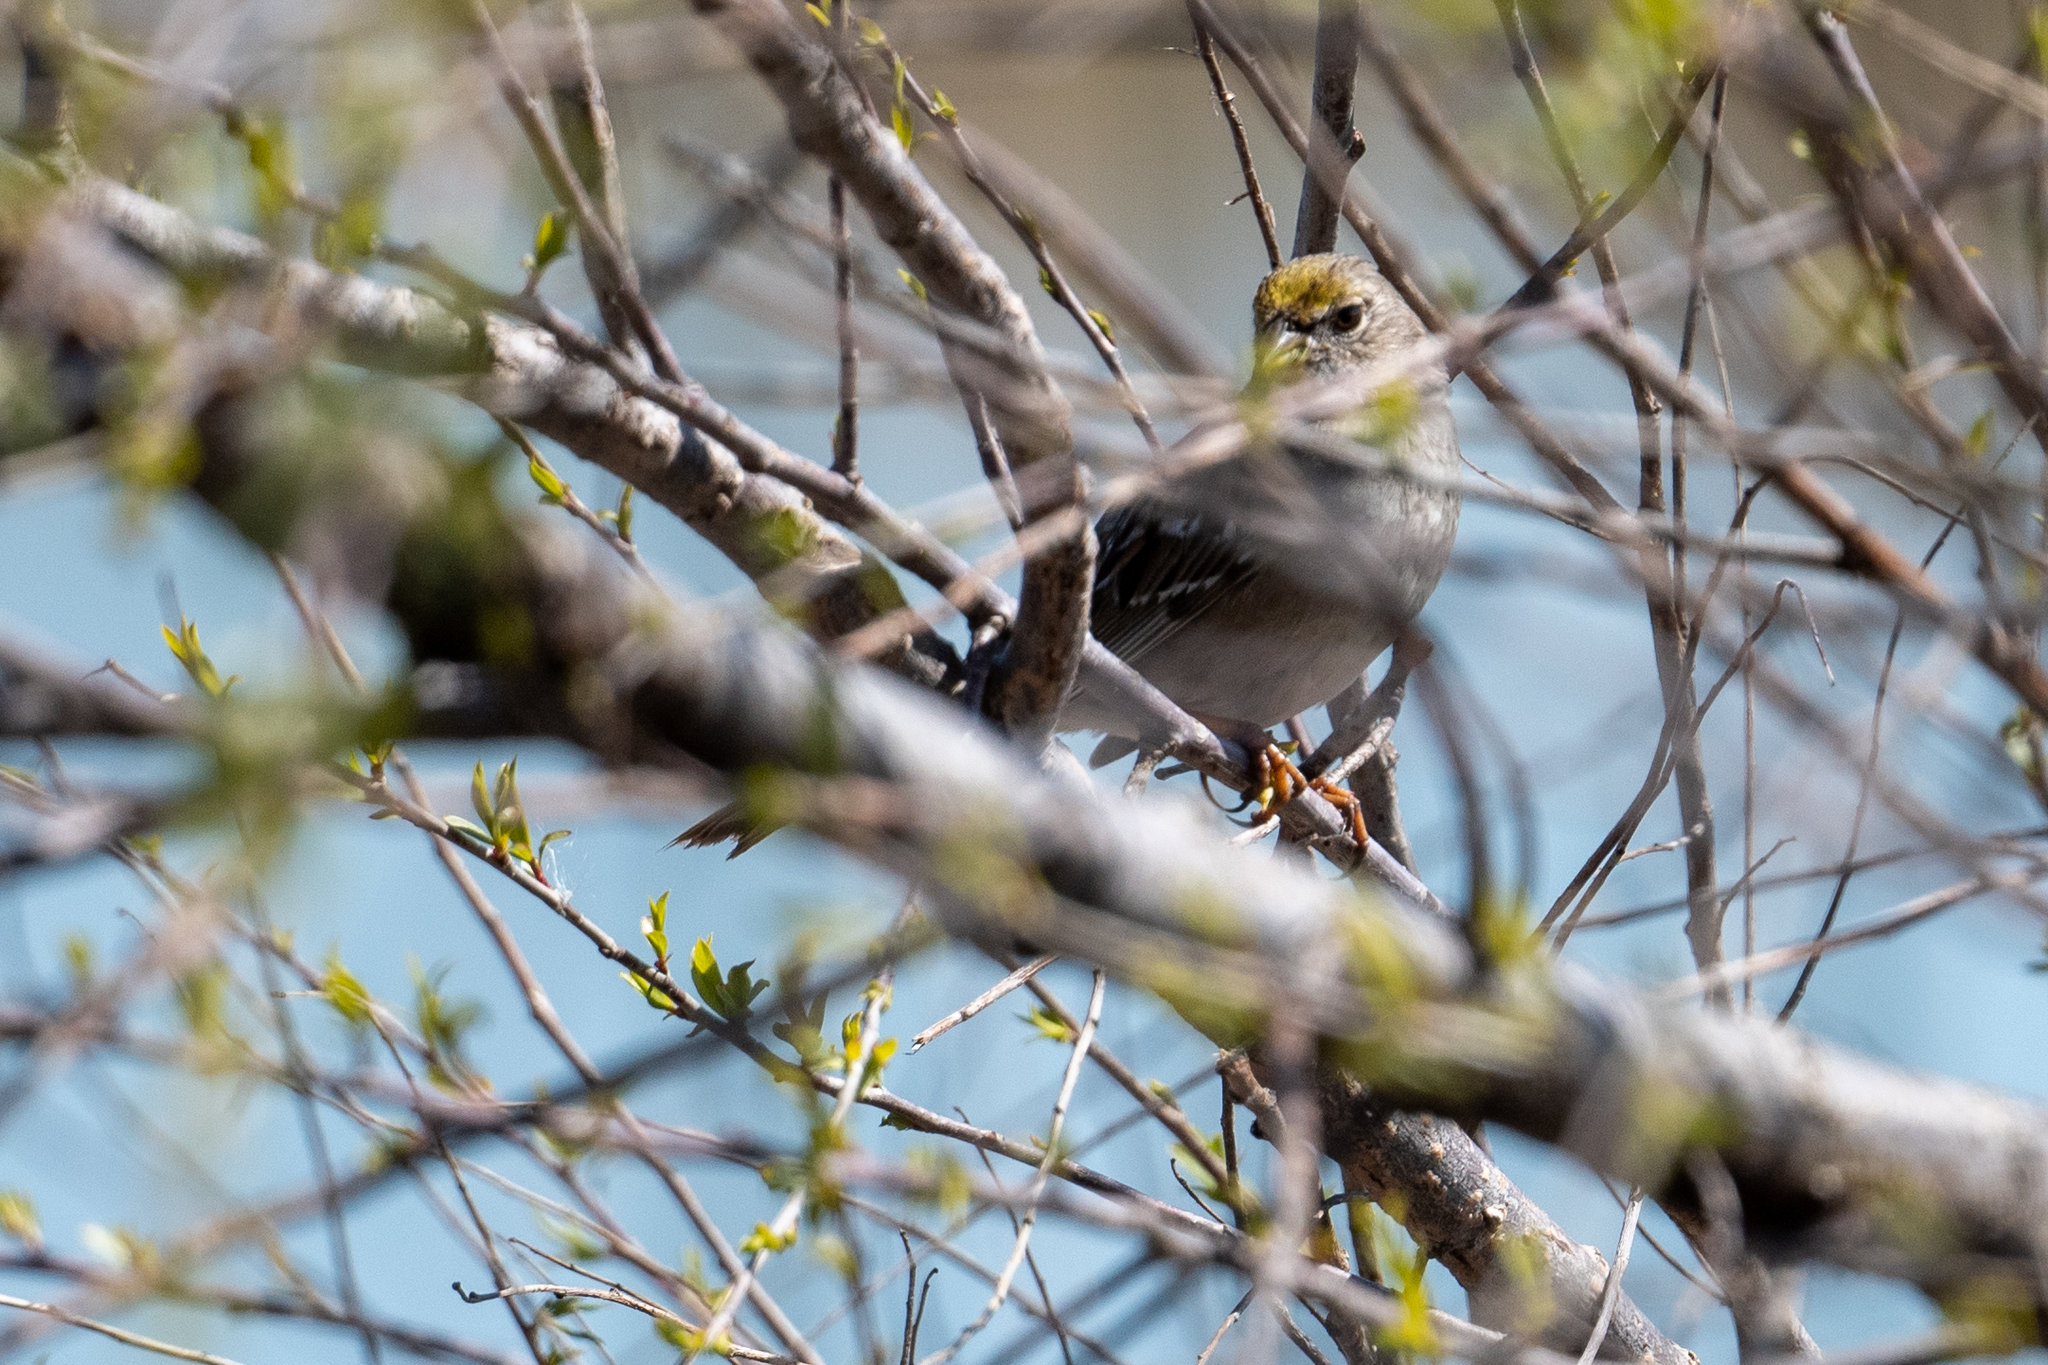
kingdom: Animalia
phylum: Chordata
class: Aves
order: Passeriformes
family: Passerellidae
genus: Zonotrichia
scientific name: Zonotrichia atricapilla
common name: Golden-crowned sparrow
